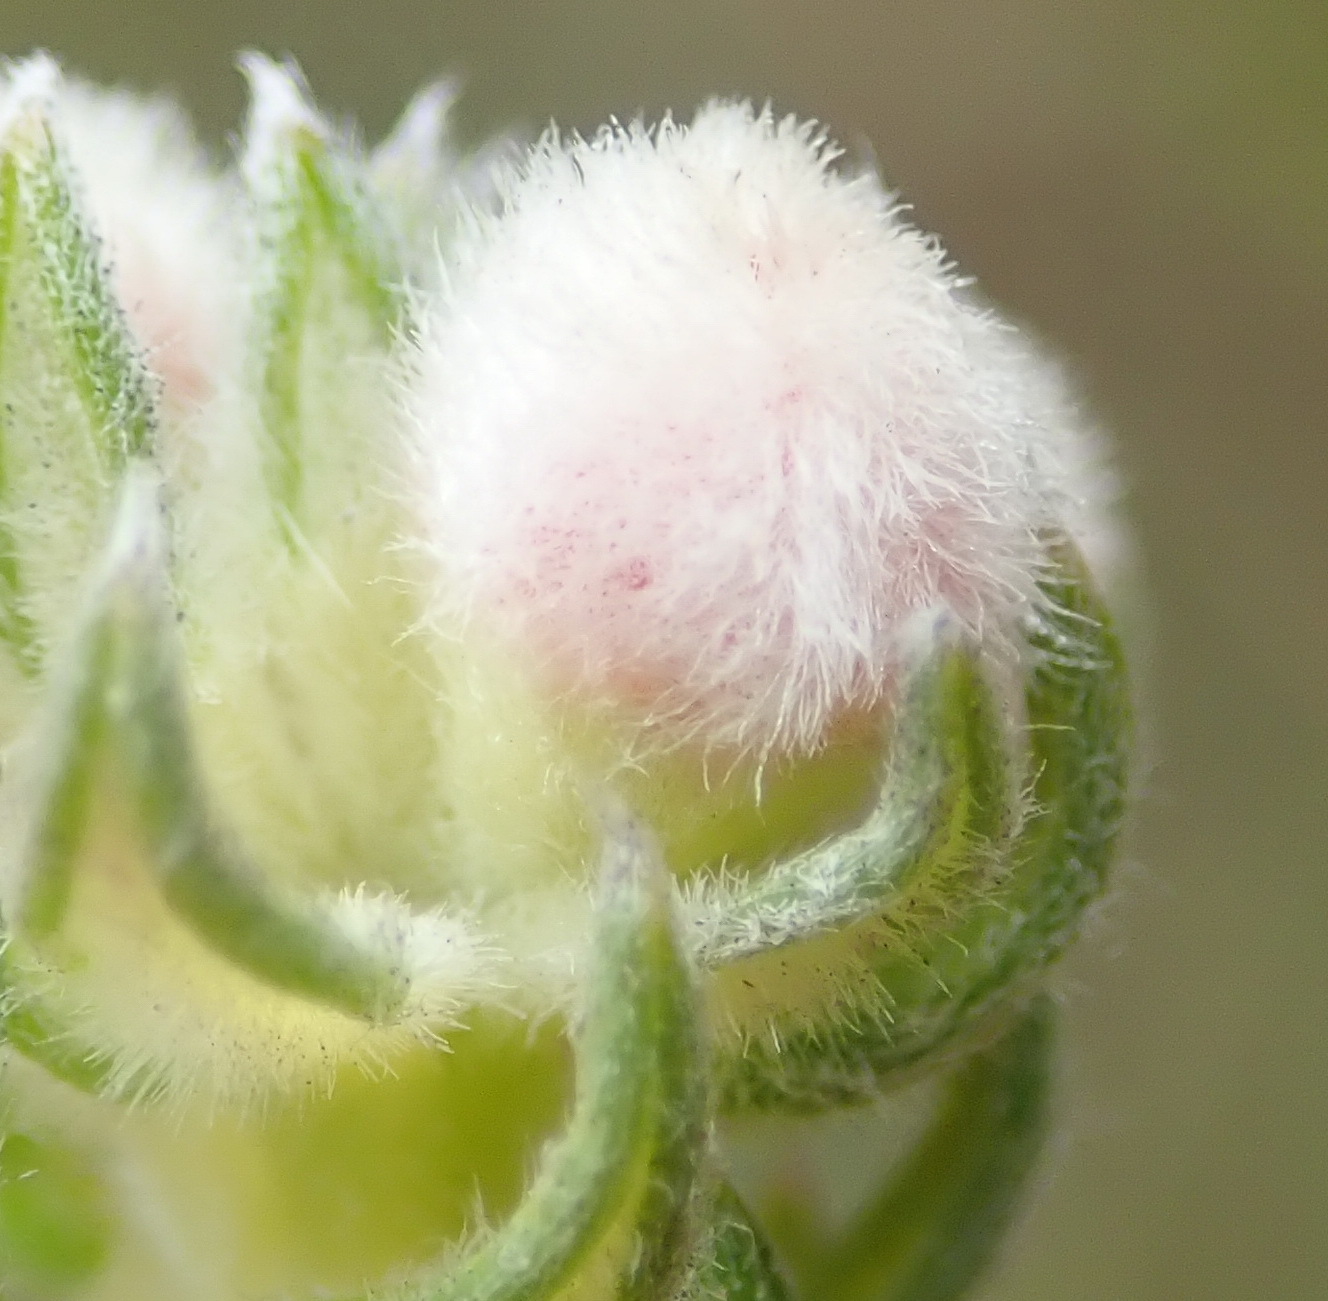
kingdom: Plantae
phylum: Tracheophyta
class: Magnoliopsida
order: Rosales
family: Rhamnaceae
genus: Phylica
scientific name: Phylica purpurea
